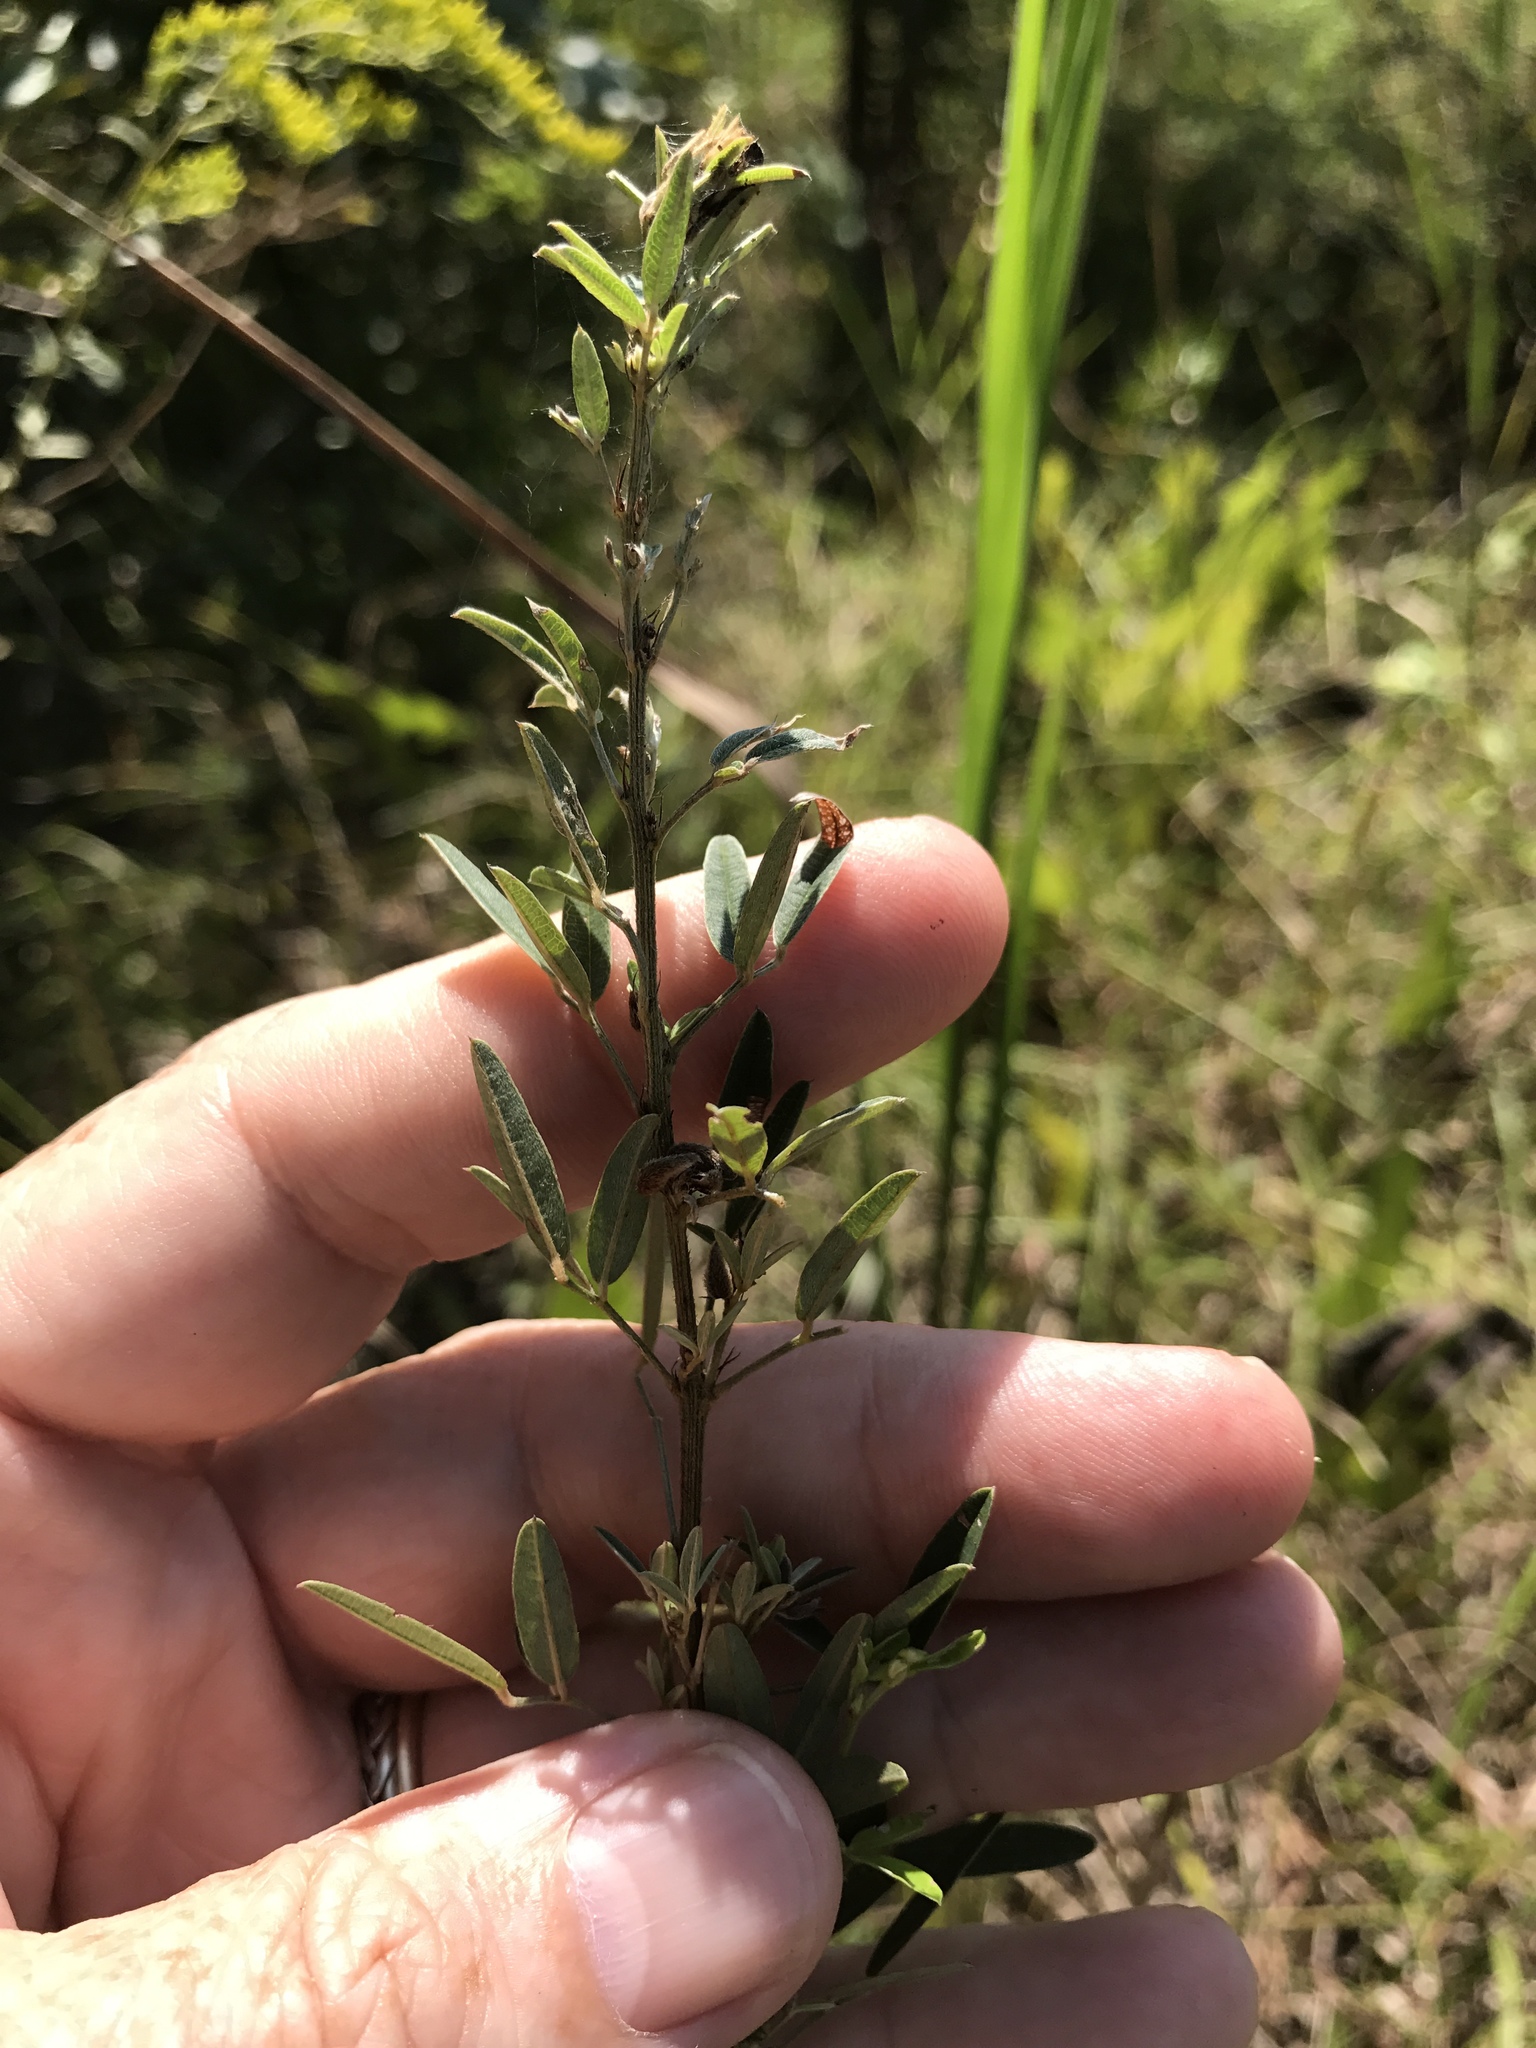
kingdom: Plantae
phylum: Tracheophyta
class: Magnoliopsida
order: Fabales
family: Fabaceae
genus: Lespedeza
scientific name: Lespedeza virginica
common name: Slender bush-clover
